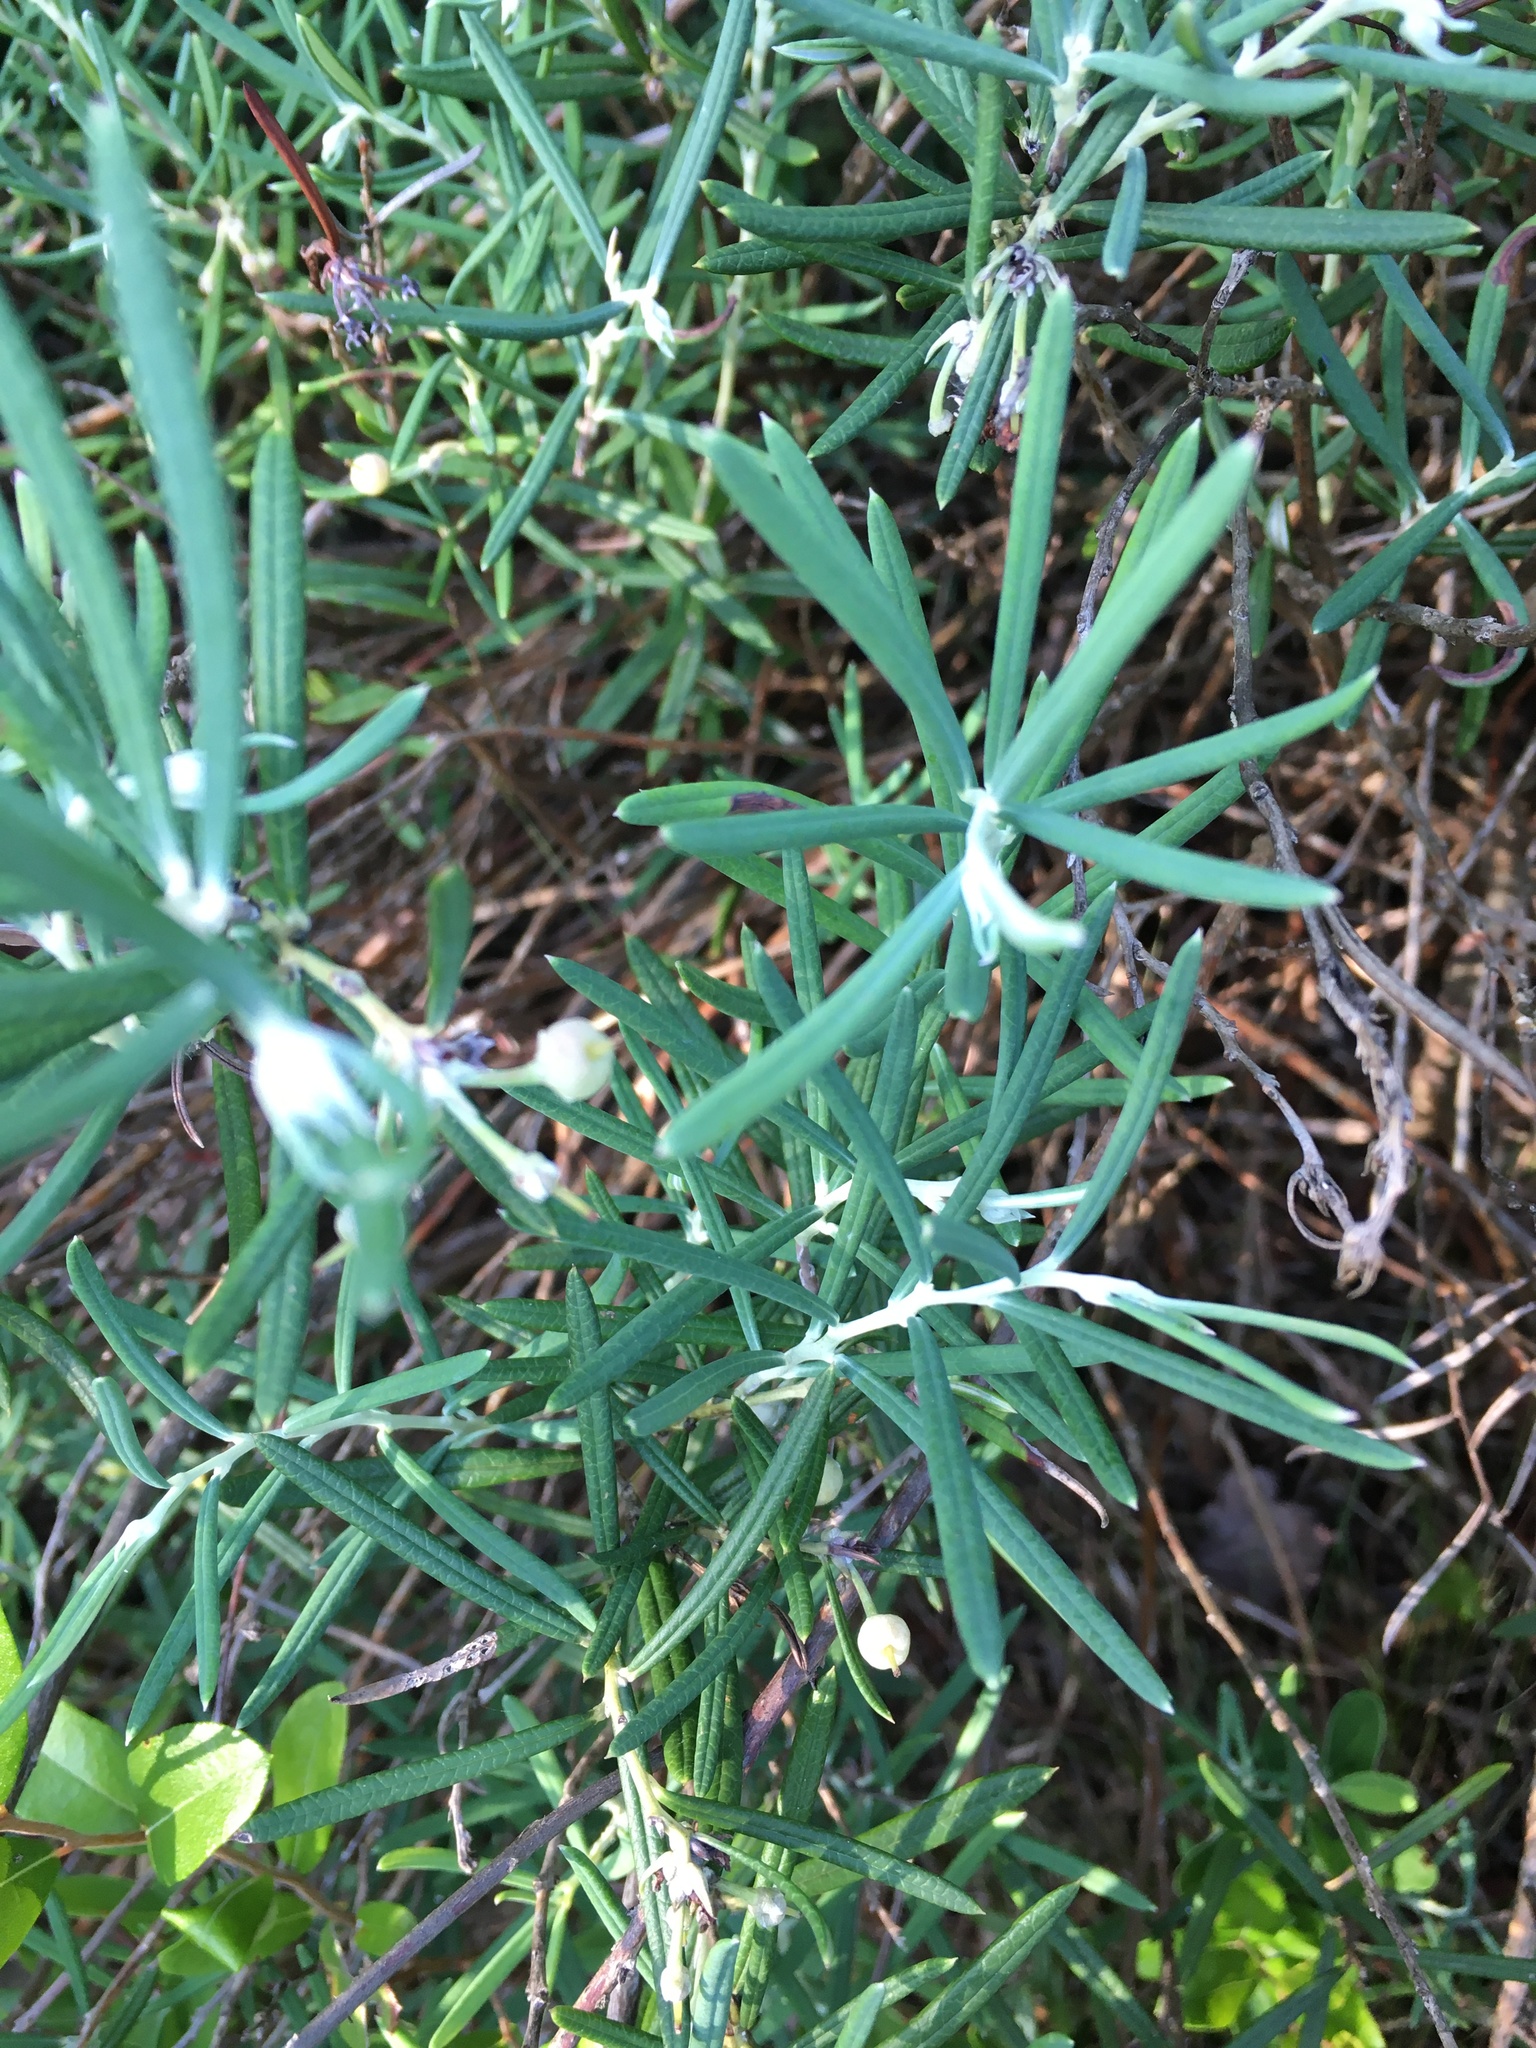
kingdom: Plantae
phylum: Tracheophyta
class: Magnoliopsida
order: Ericales
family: Ericaceae
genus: Andromeda
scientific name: Andromeda polifolia
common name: Bog-rosemary
